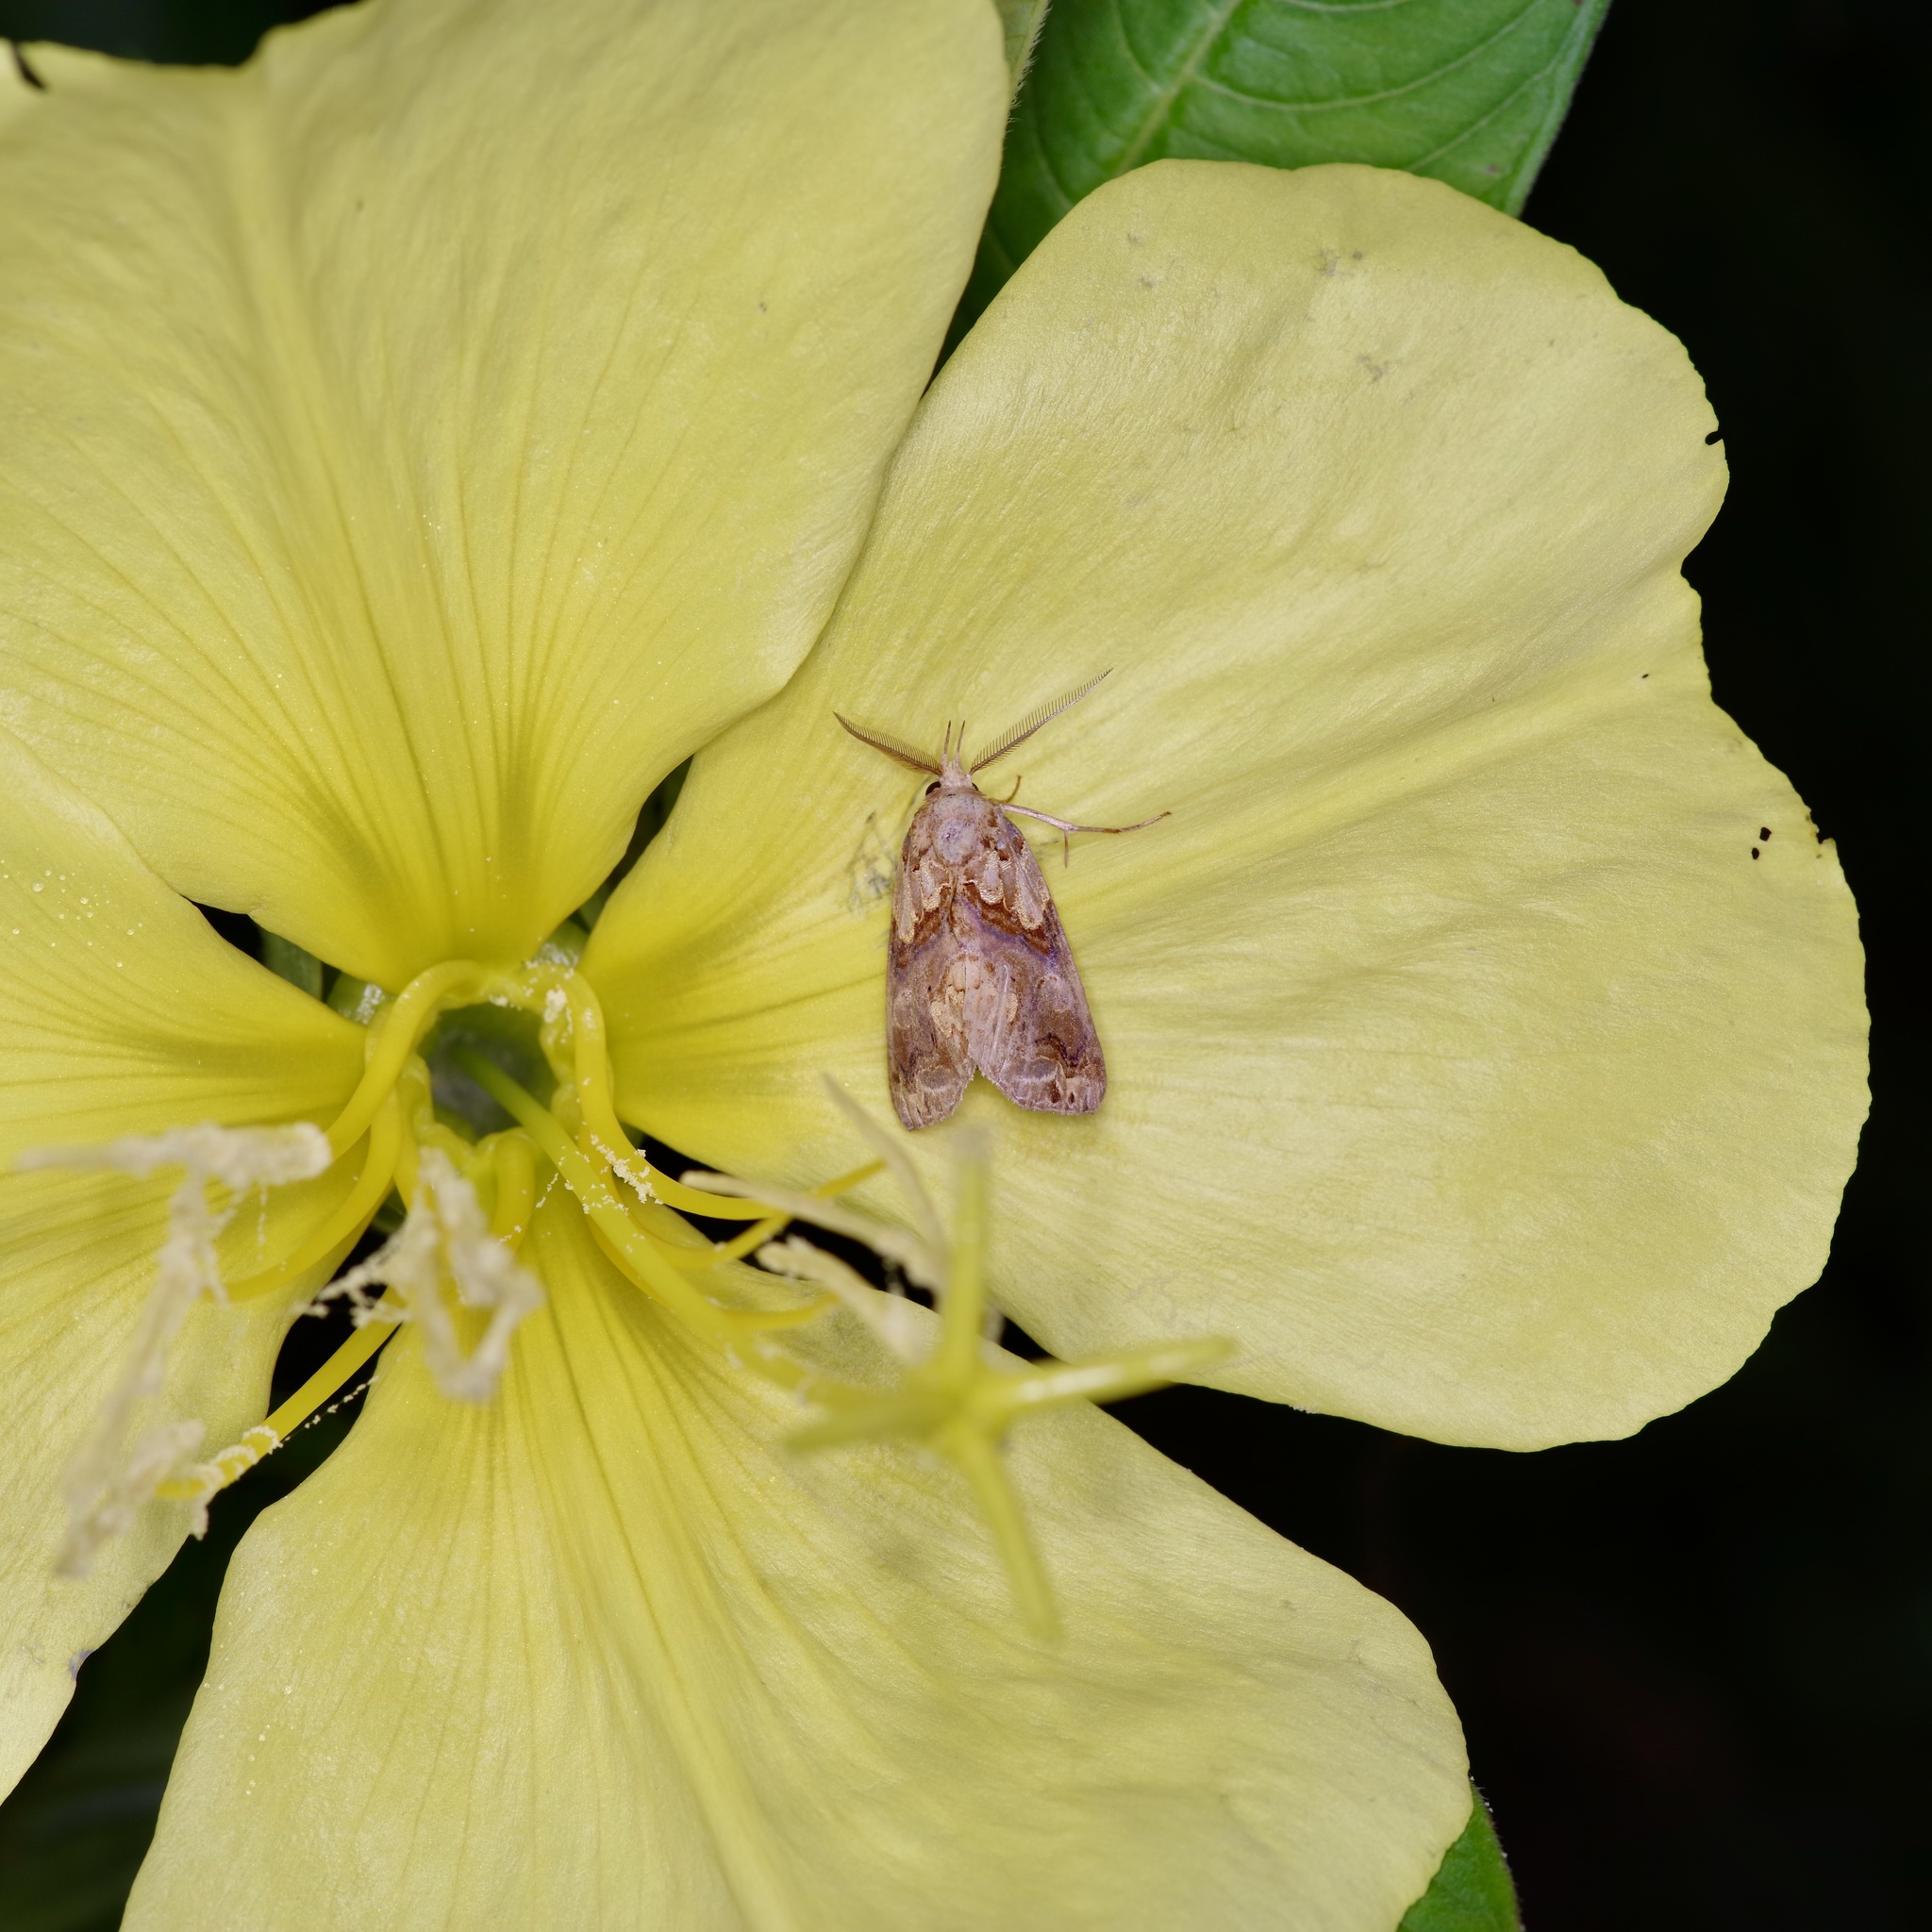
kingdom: Animalia
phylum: Arthropoda
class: Insecta
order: Lepidoptera
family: Erebidae
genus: Plusiodonta
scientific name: Plusiodonta compressipalpis
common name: Moonseed moth
